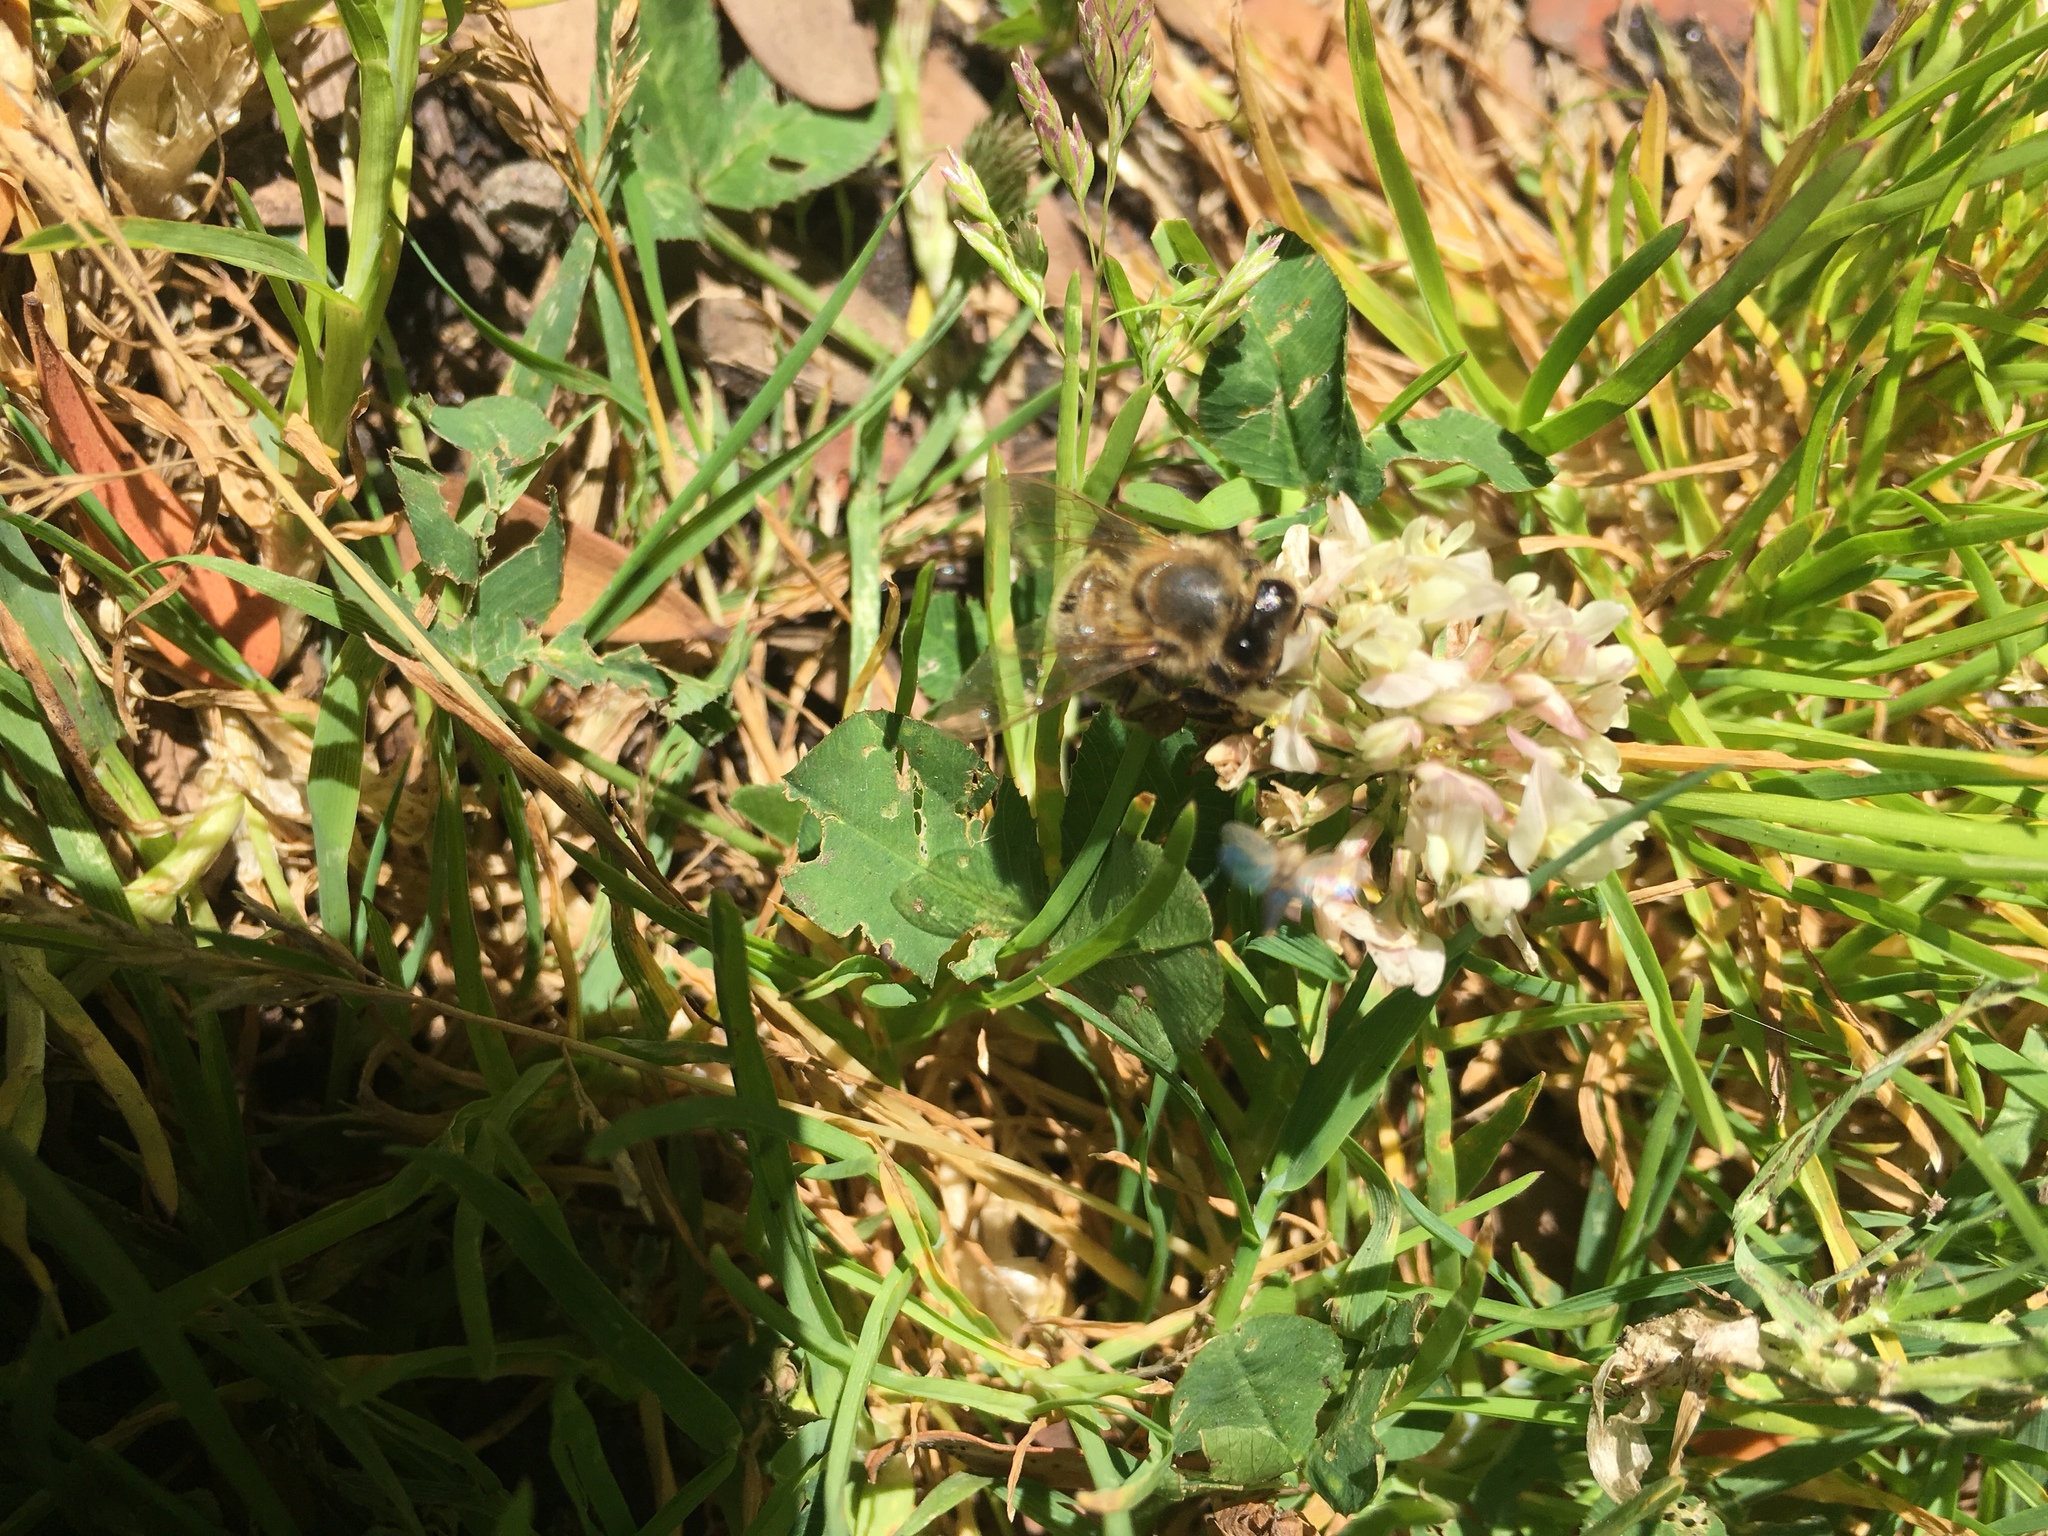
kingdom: Animalia
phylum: Arthropoda
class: Insecta
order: Hymenoptera
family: Apidae
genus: Apis
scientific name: Apis mellifera
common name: Honey bee
